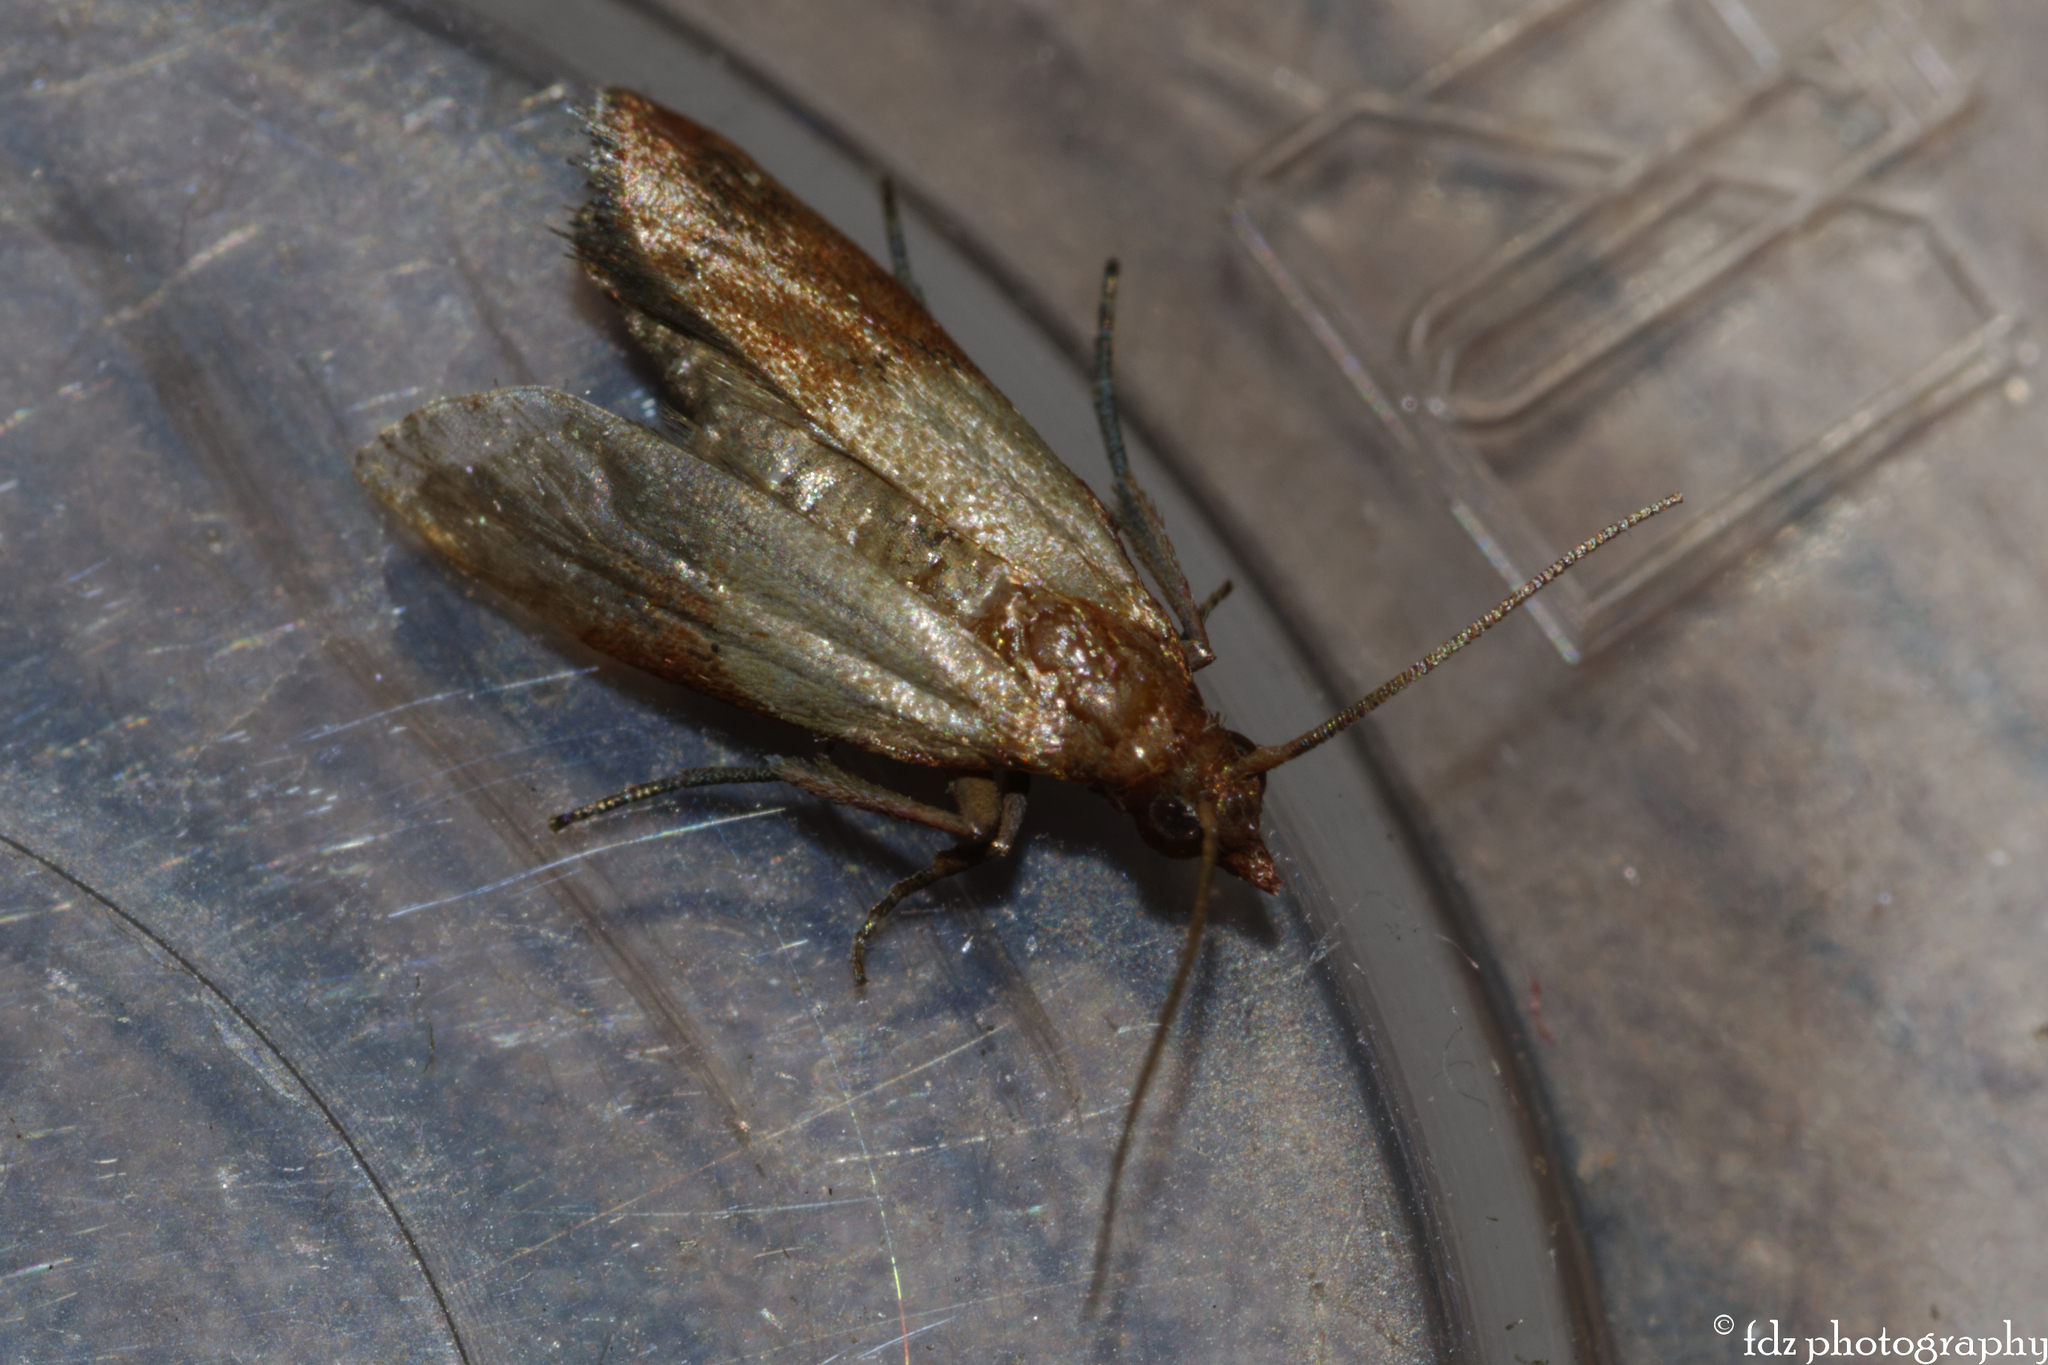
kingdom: Animalia
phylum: Arthropoda
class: Insecta
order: Lepidoptera
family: Pyralidae
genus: Plodia
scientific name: Plodia interpunctella
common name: Indian meal moth
